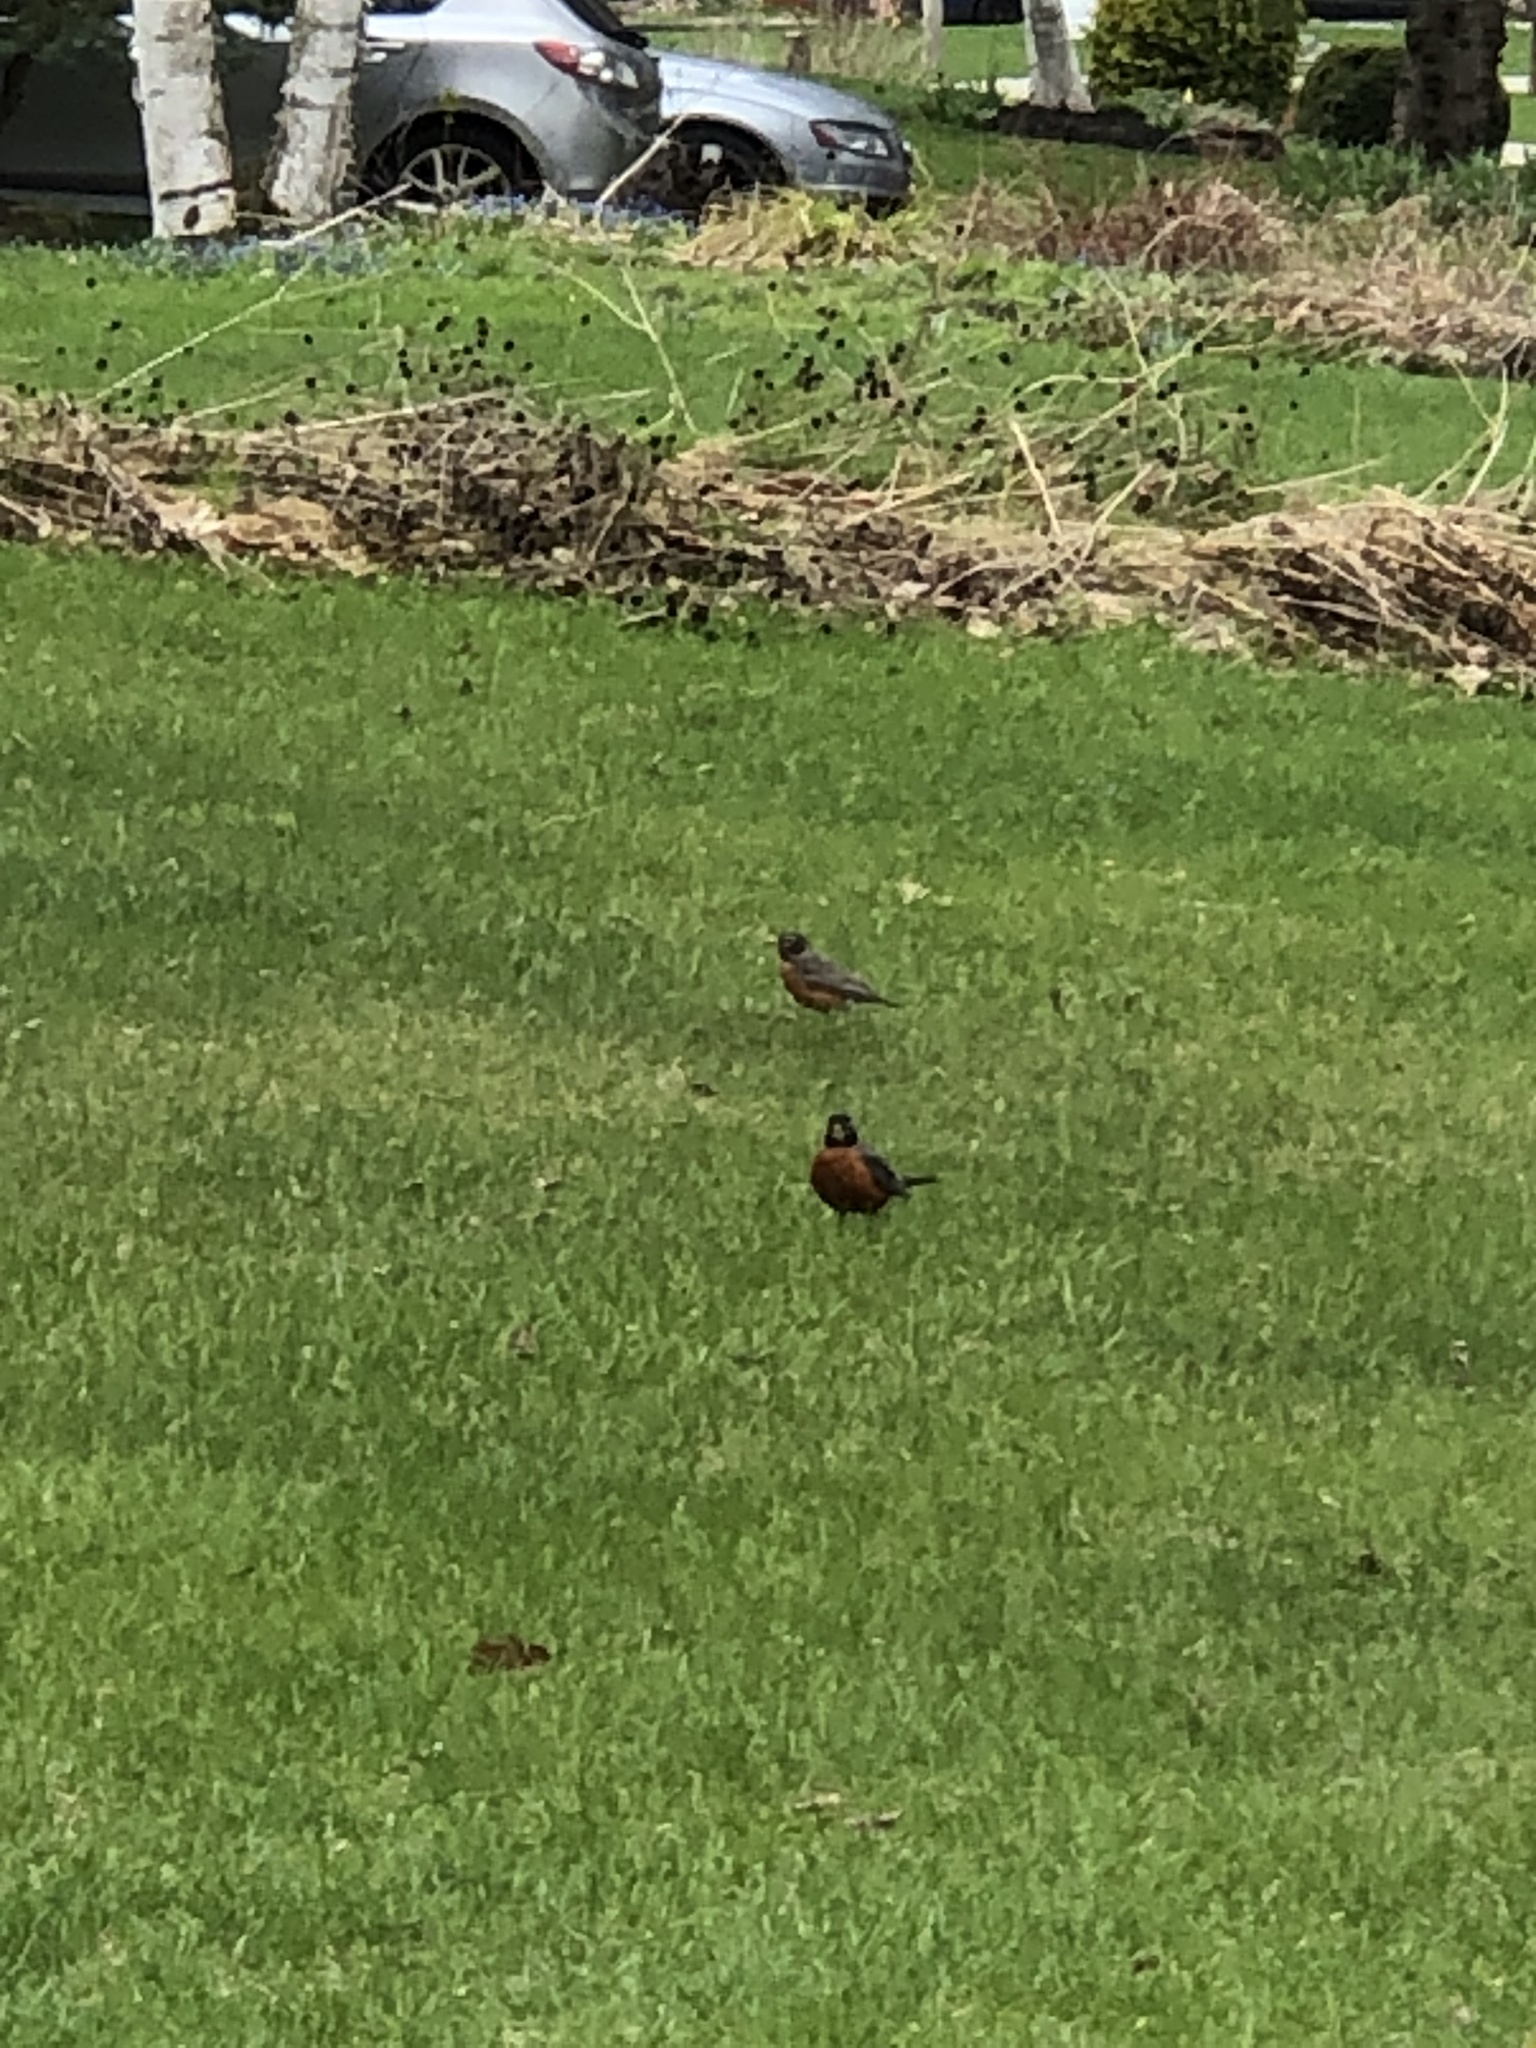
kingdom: Animalia
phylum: Chordata
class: Aves
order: Passeriformes
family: Turdidae
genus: Turdus
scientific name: Turdus migratorius
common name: American robin
